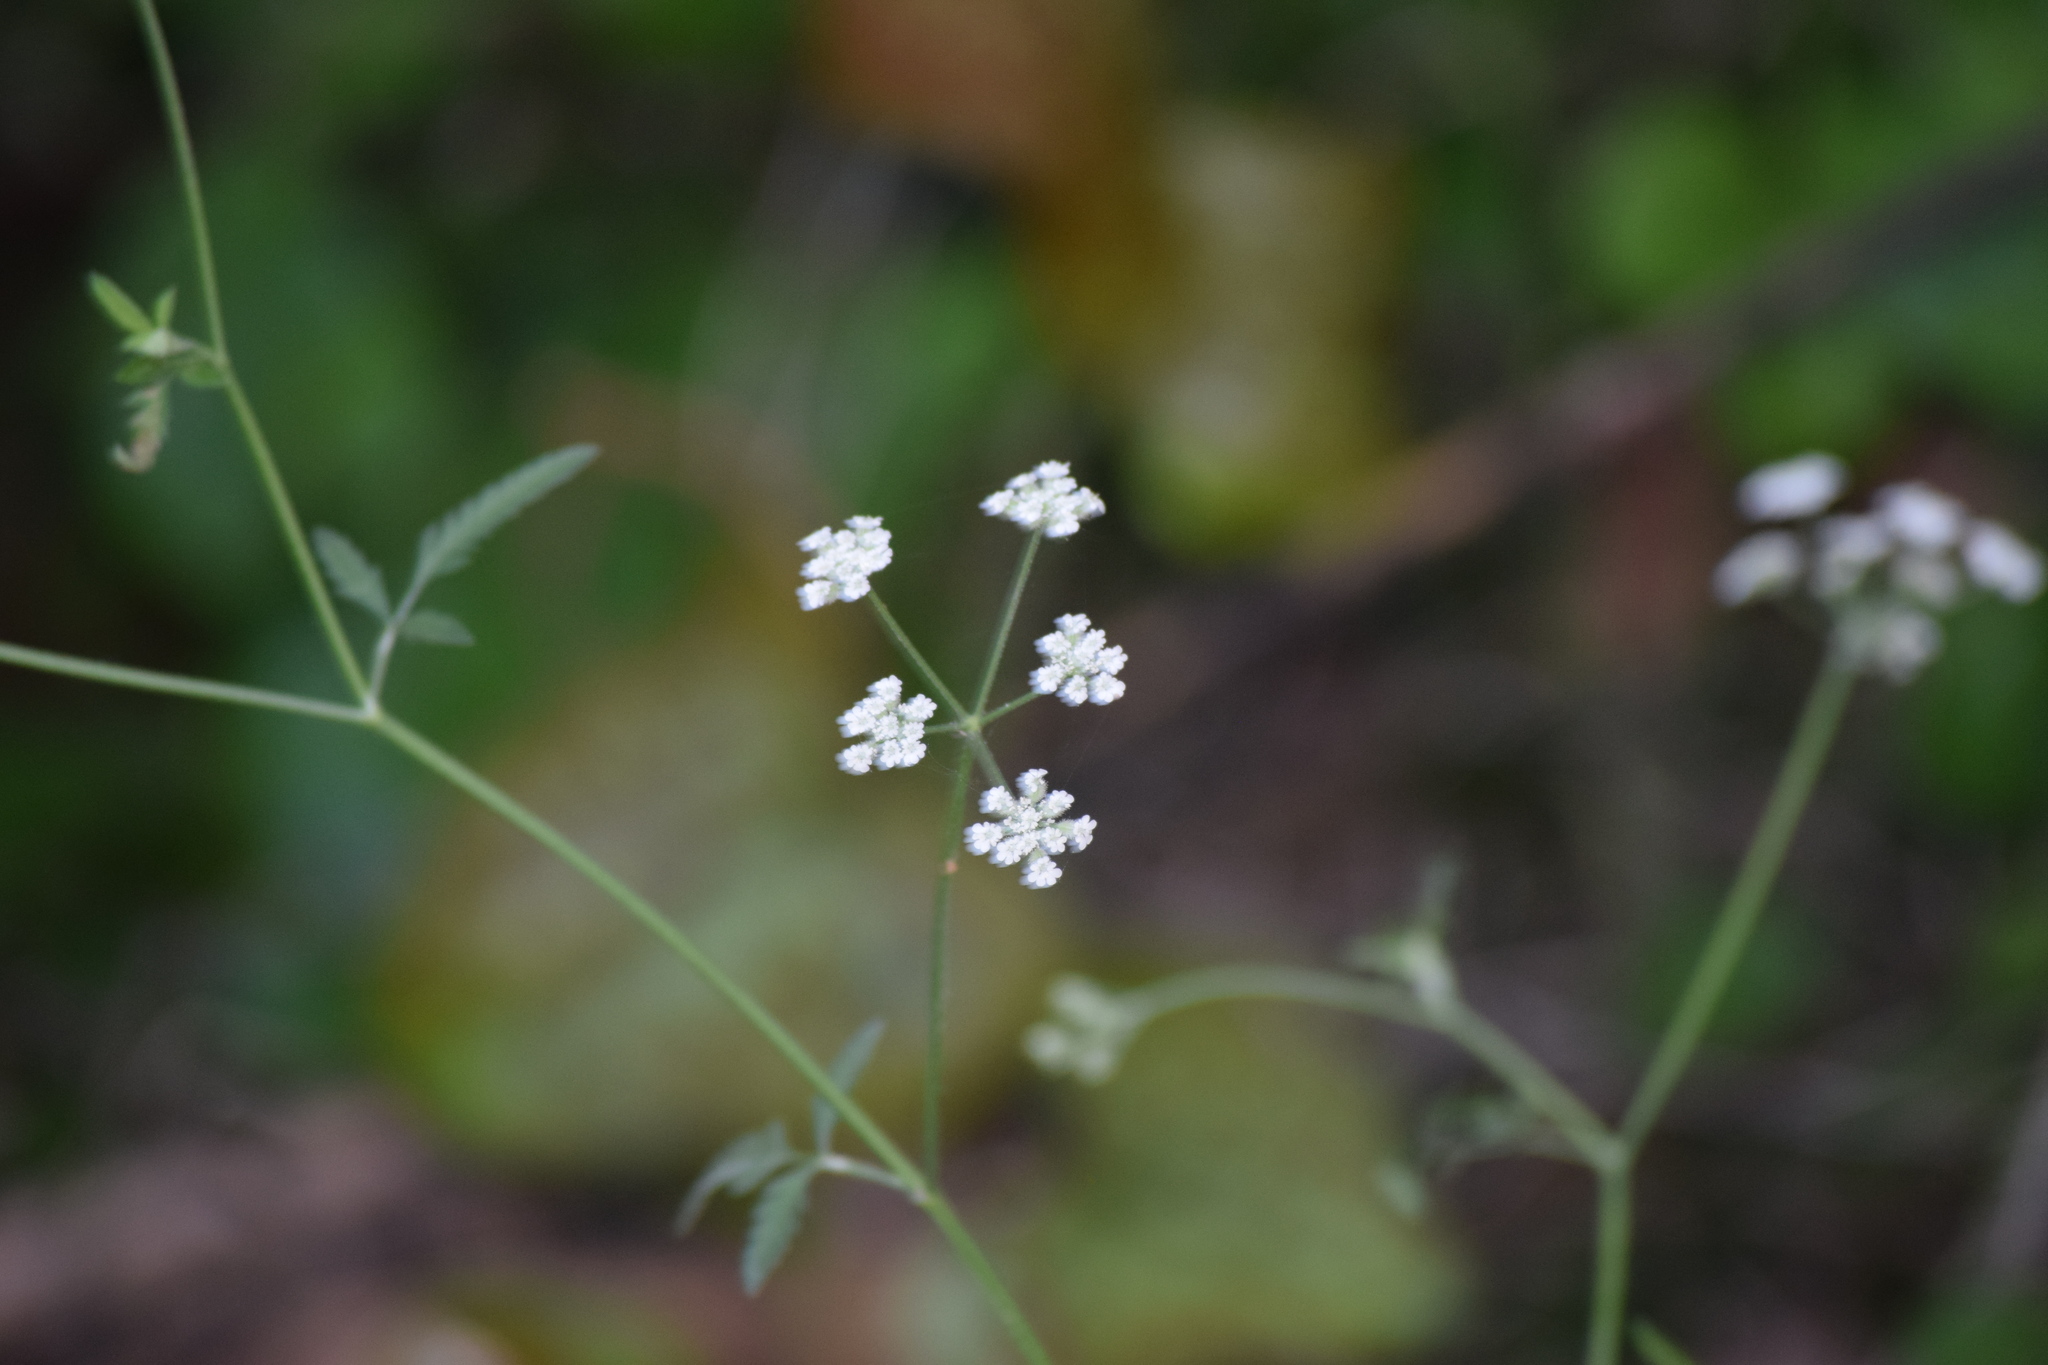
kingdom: Plantae
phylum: Tracheophyta
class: Magnoliopsida
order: Apiales
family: Apiaceae
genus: Torilis
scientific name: Torilis arvensis
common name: Spreading hedge-parsley
